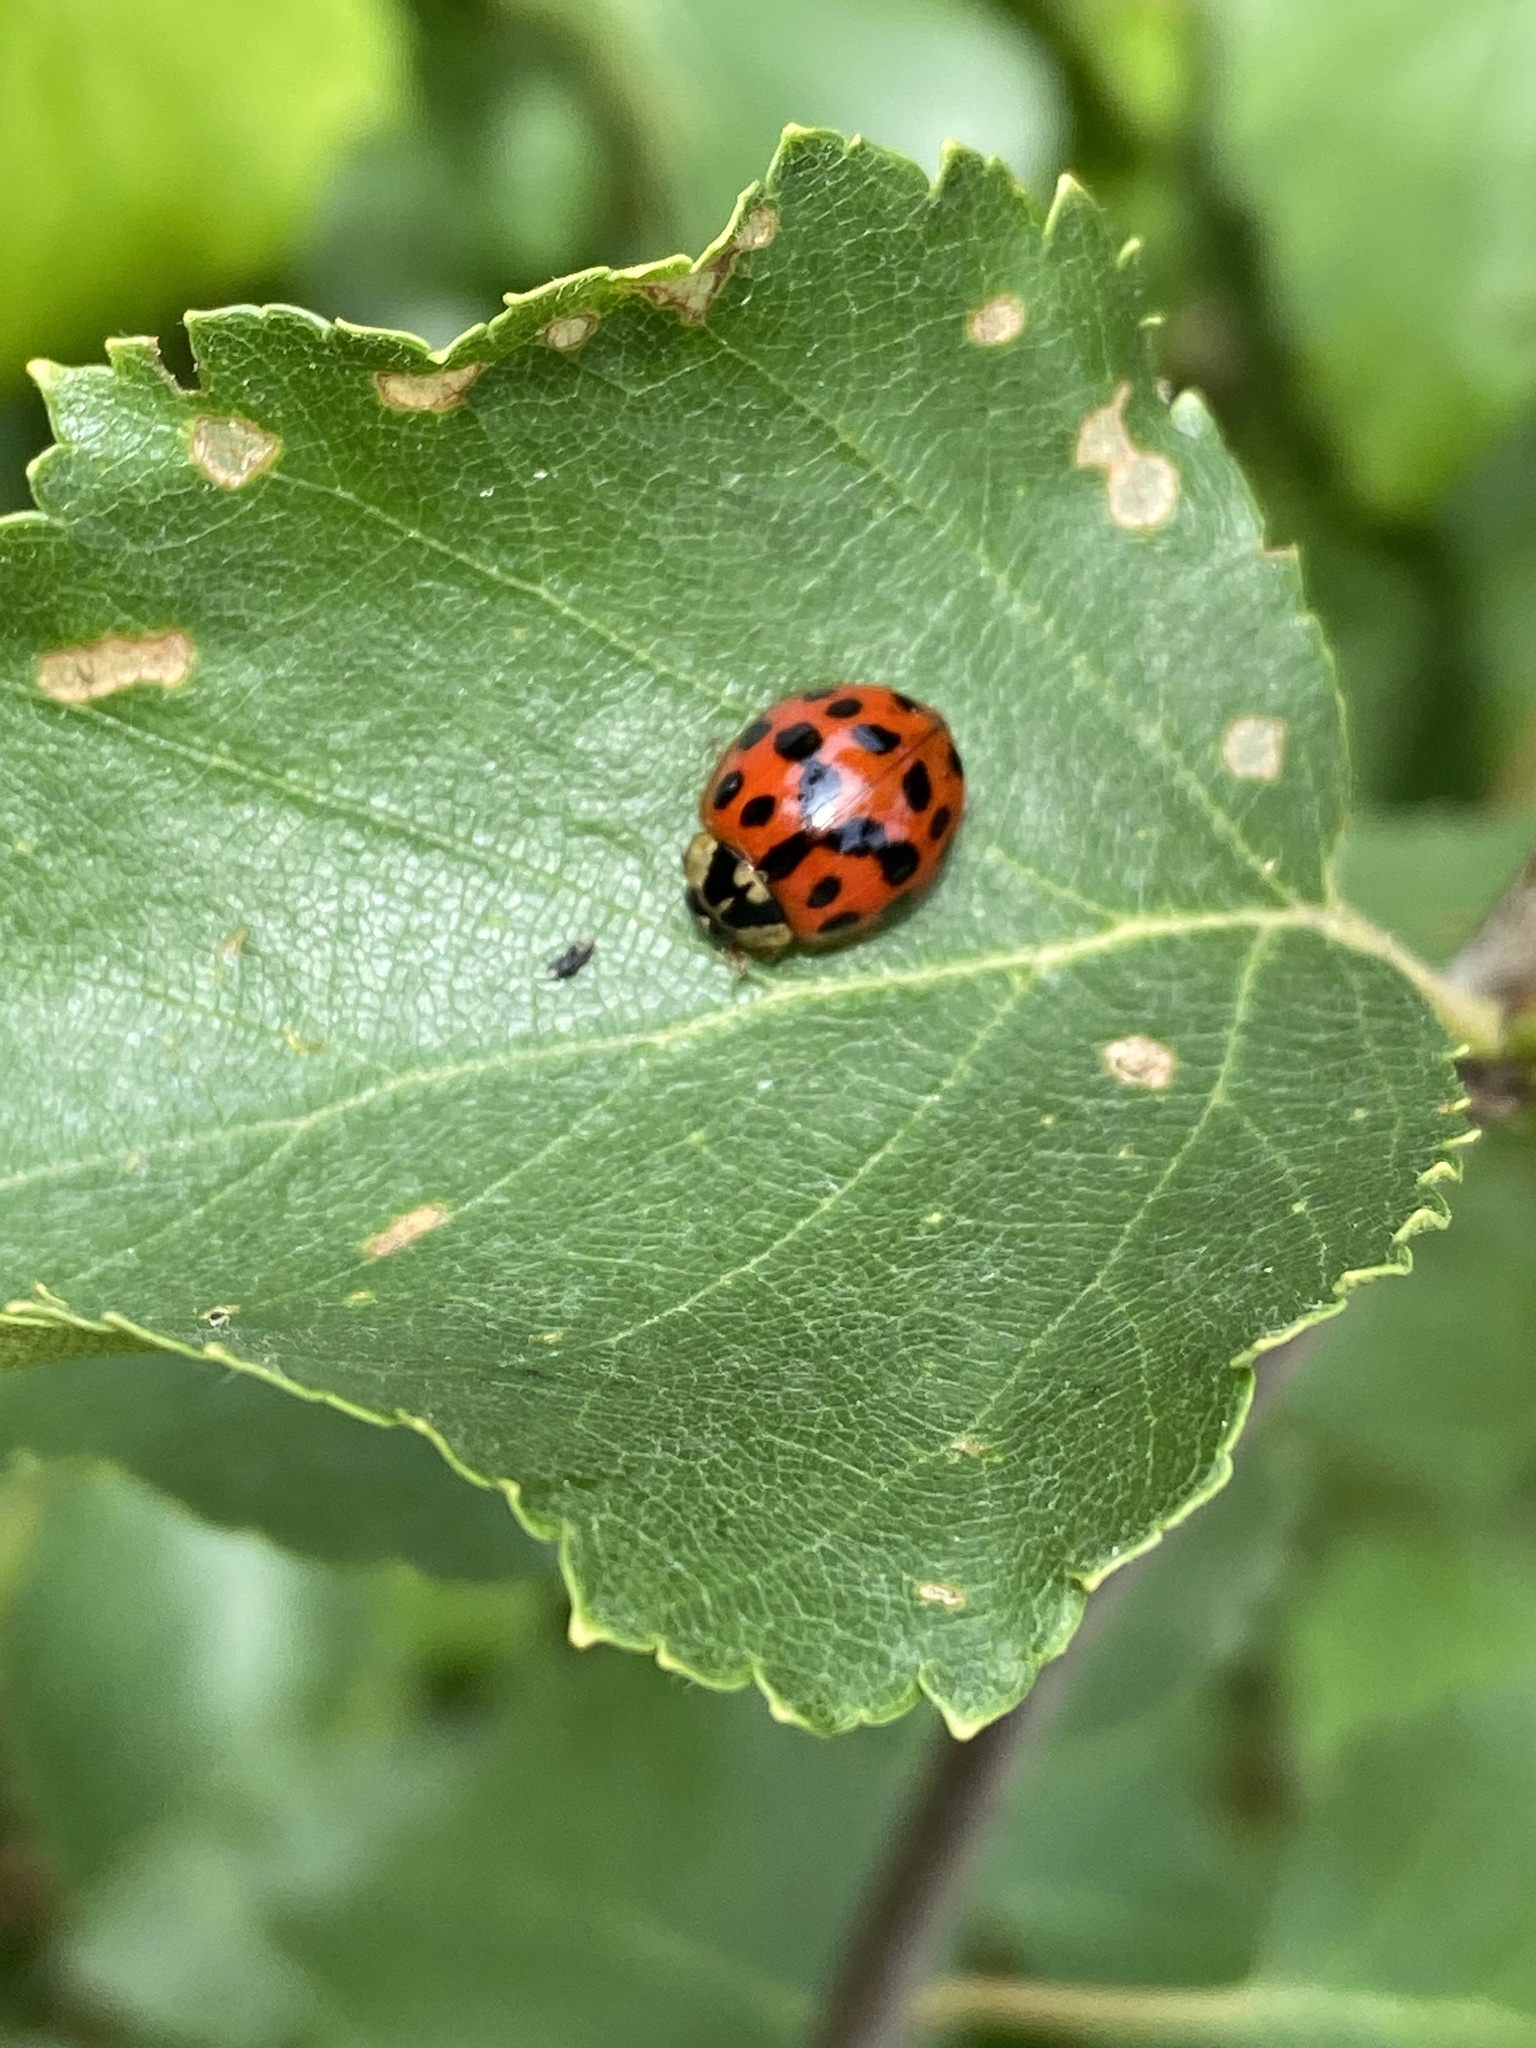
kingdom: Animalia
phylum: Arthropoda
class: Insecta
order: Coleoptera
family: Coccinellidae
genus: Harmonia
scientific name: Harmonia axyridis
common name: Harlequin ladybird
